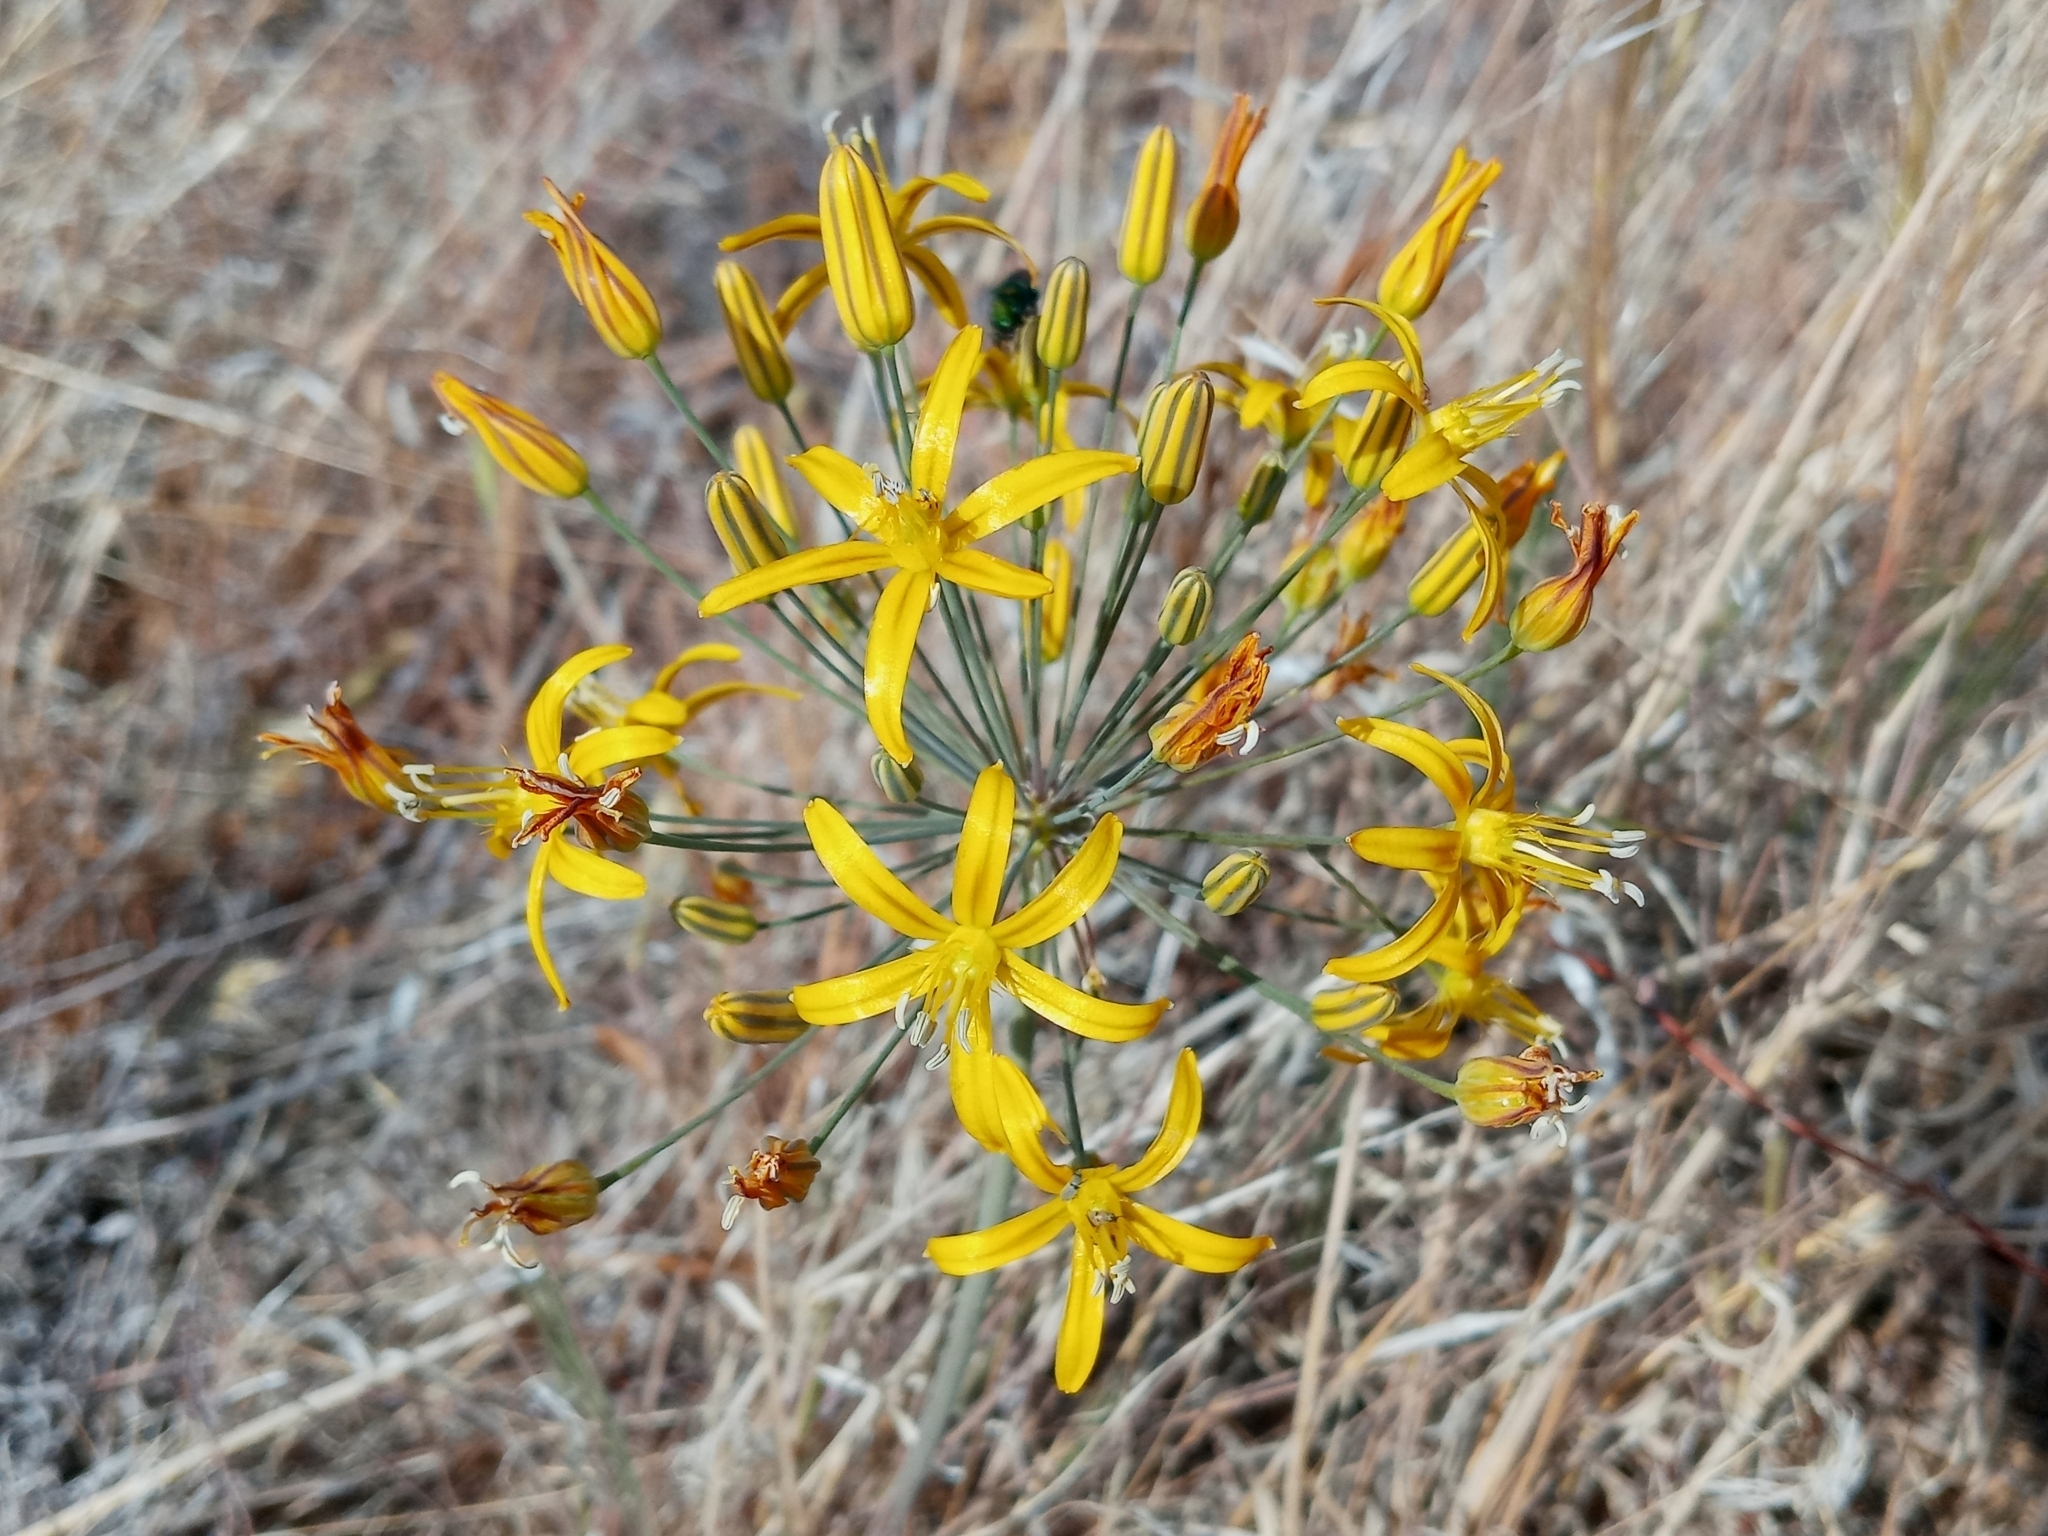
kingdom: Plantae
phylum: Tracheophyta
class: Liliopsida
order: Asparagales
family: Asparagaceae
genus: Bloomeria
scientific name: Bloomeria crocea
